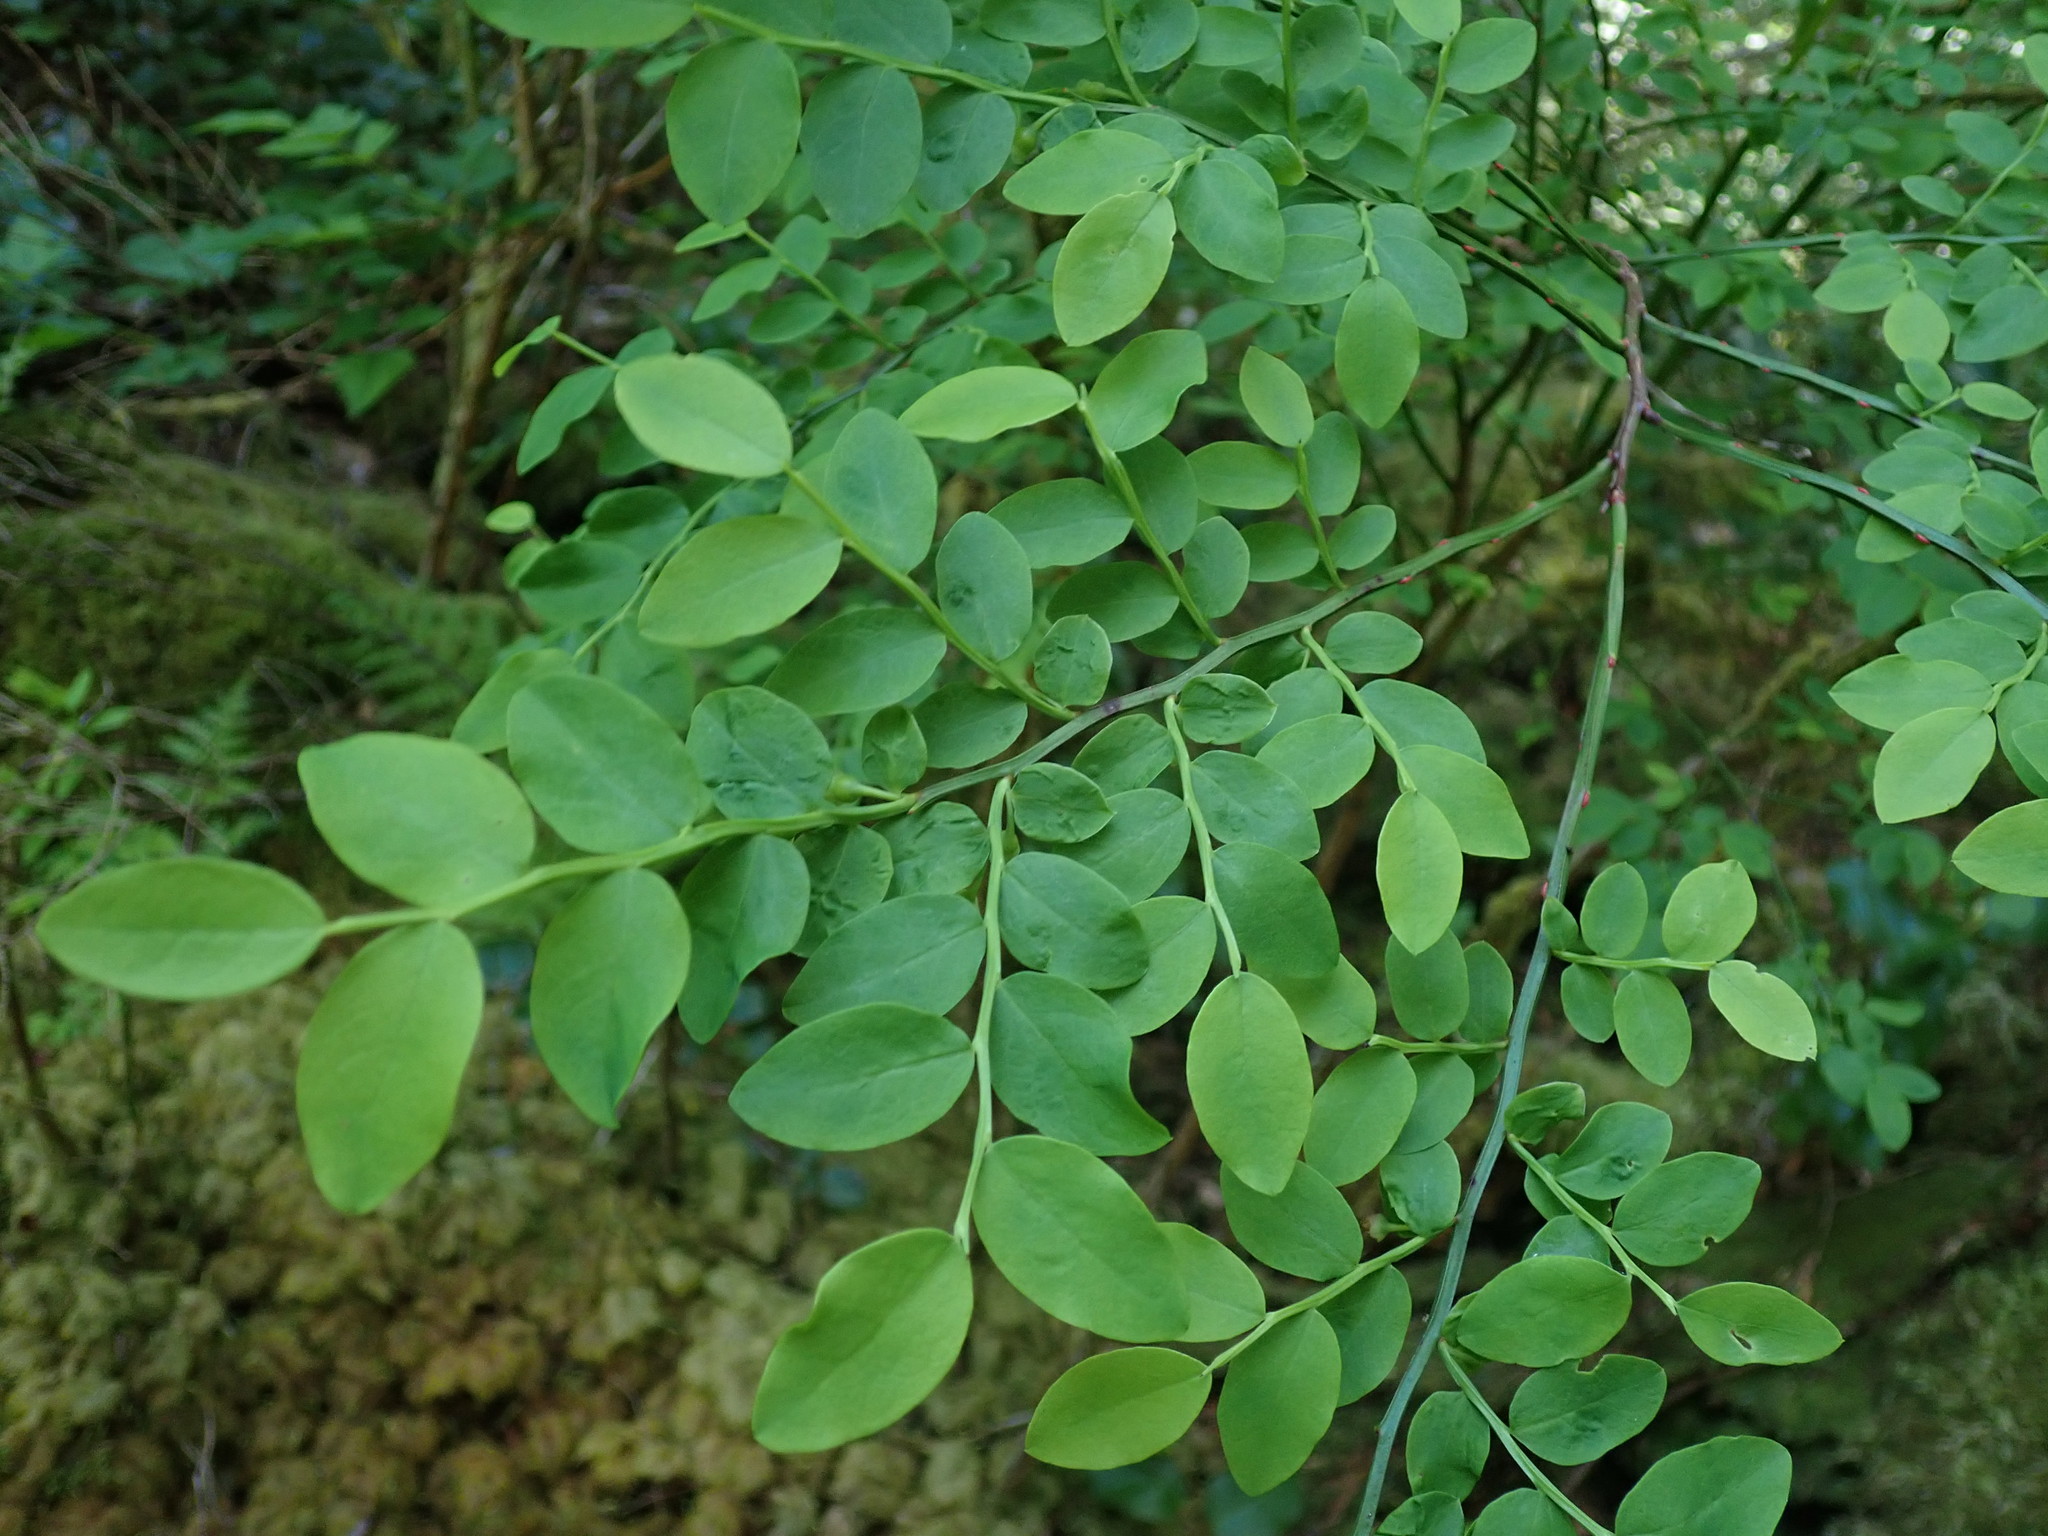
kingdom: Plantae
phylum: Tracheophyta
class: Magnoliopsida
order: Ericales
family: Ericaceae
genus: Vaccinium
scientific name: Vaccinium parvifolium
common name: Red-huckleberry
